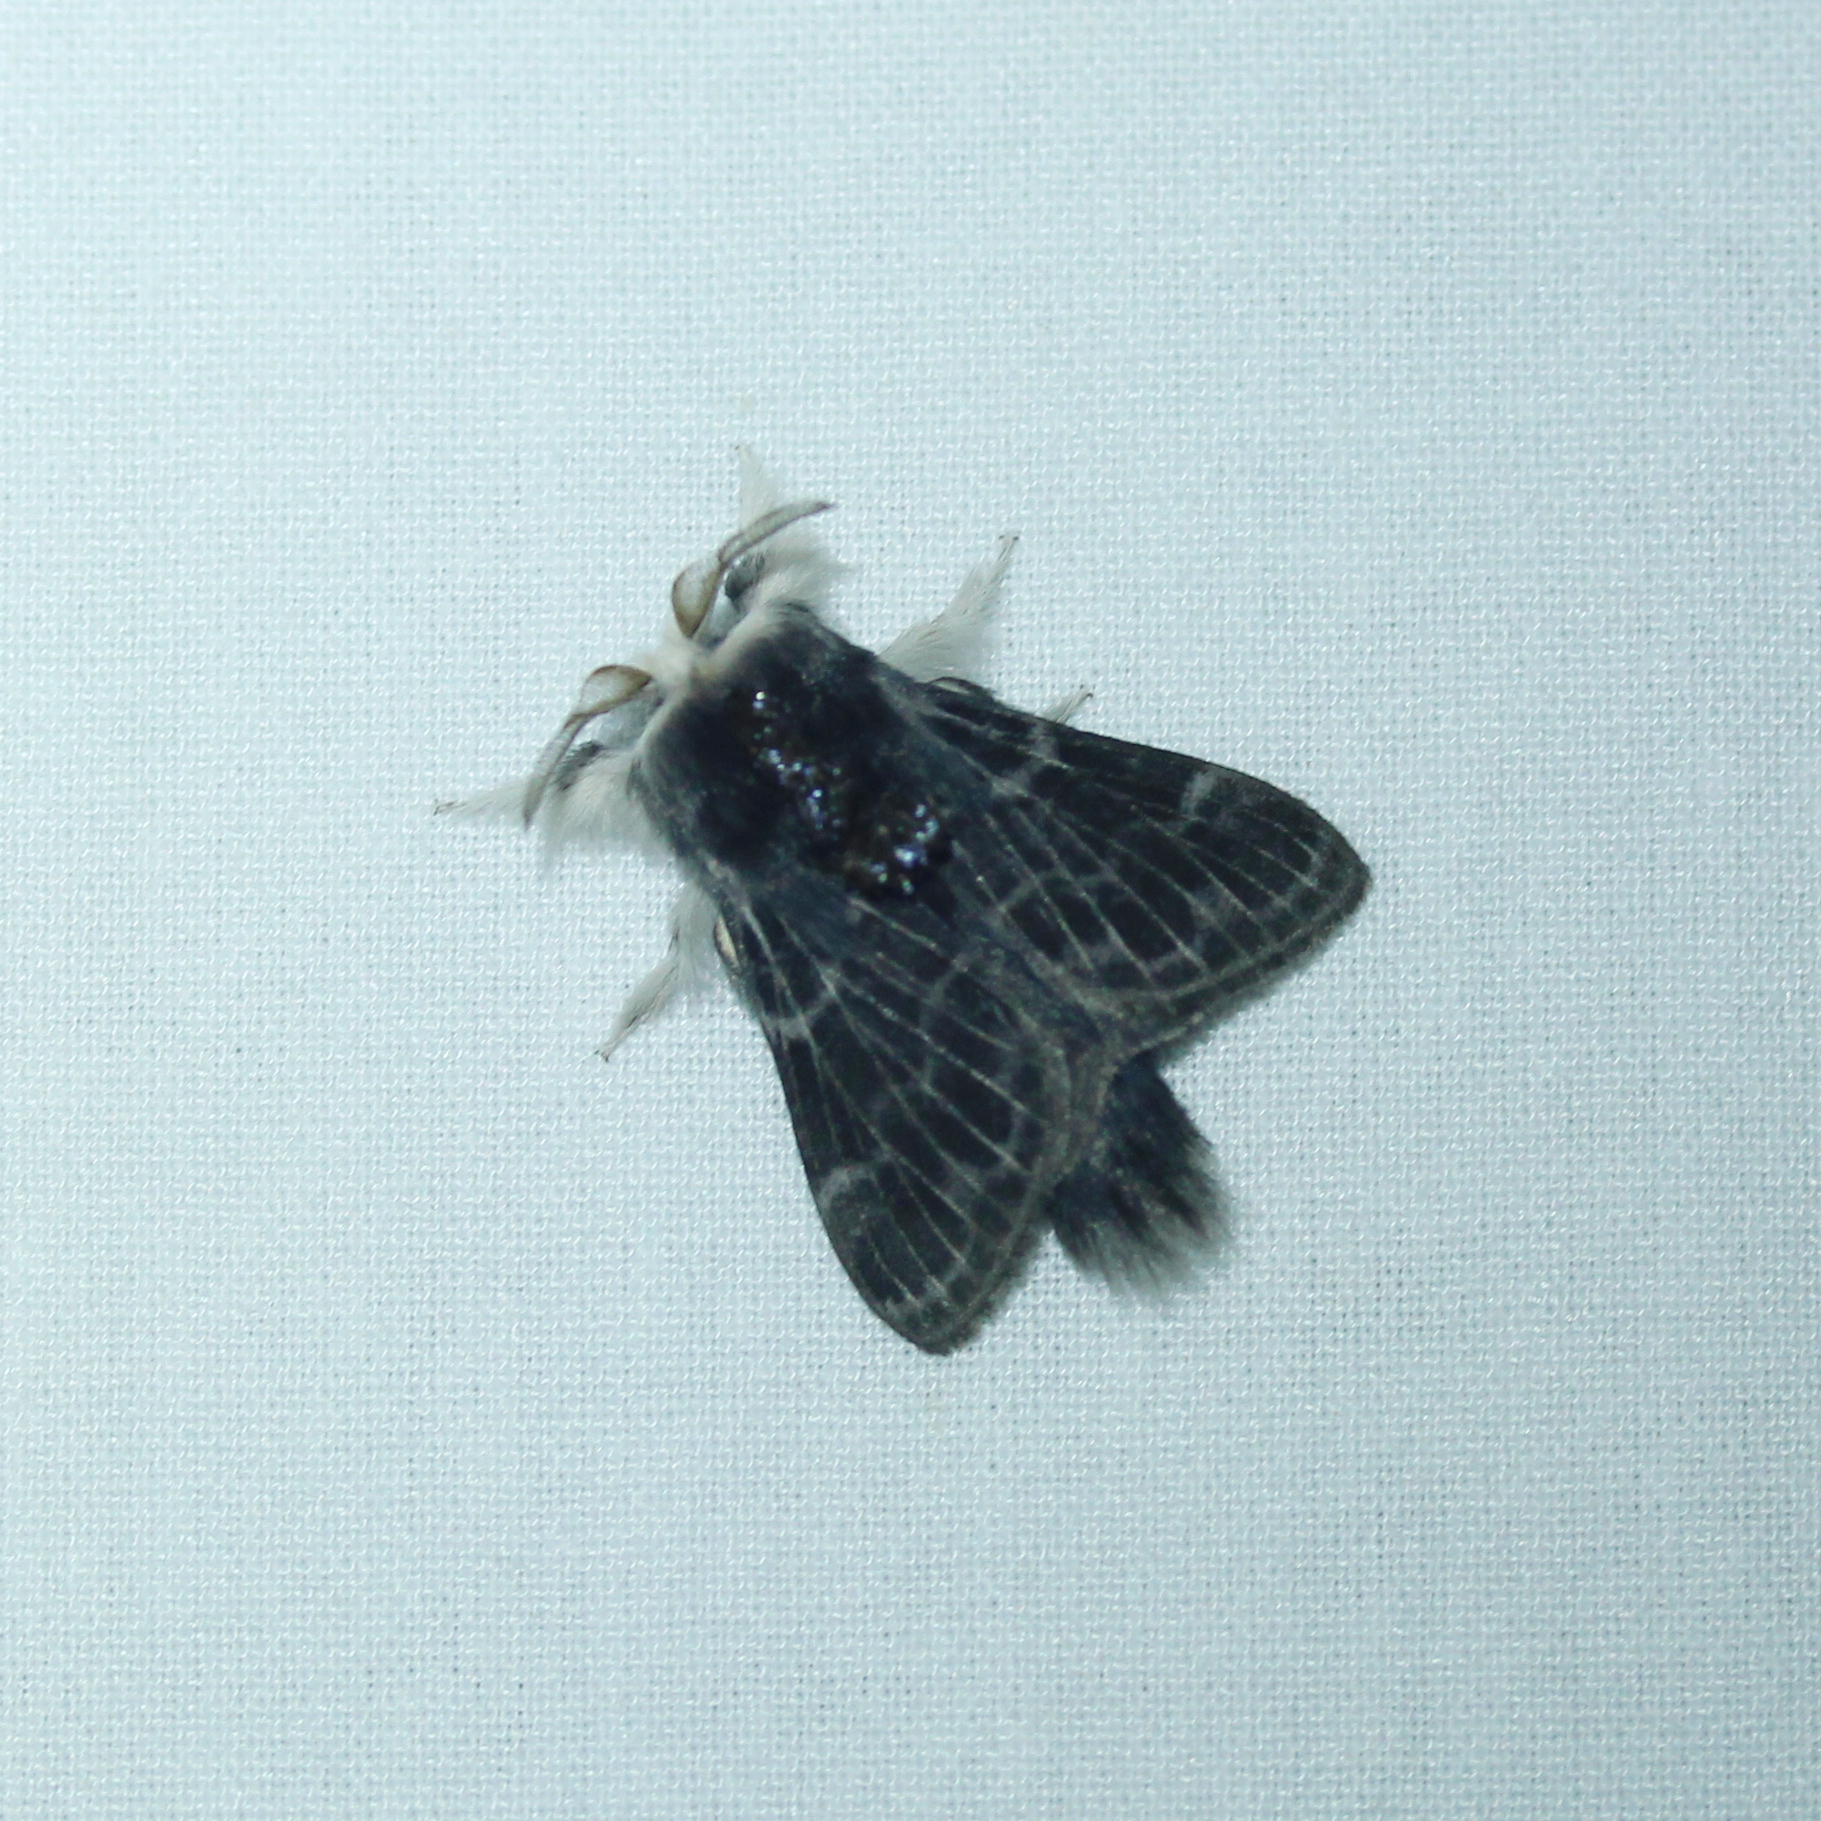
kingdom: Animalia
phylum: Arthropoda
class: Insecta
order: Lepidoptera
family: Lasiocampidae
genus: Tolype
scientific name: Tolype laricis
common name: Larch tolype moth
